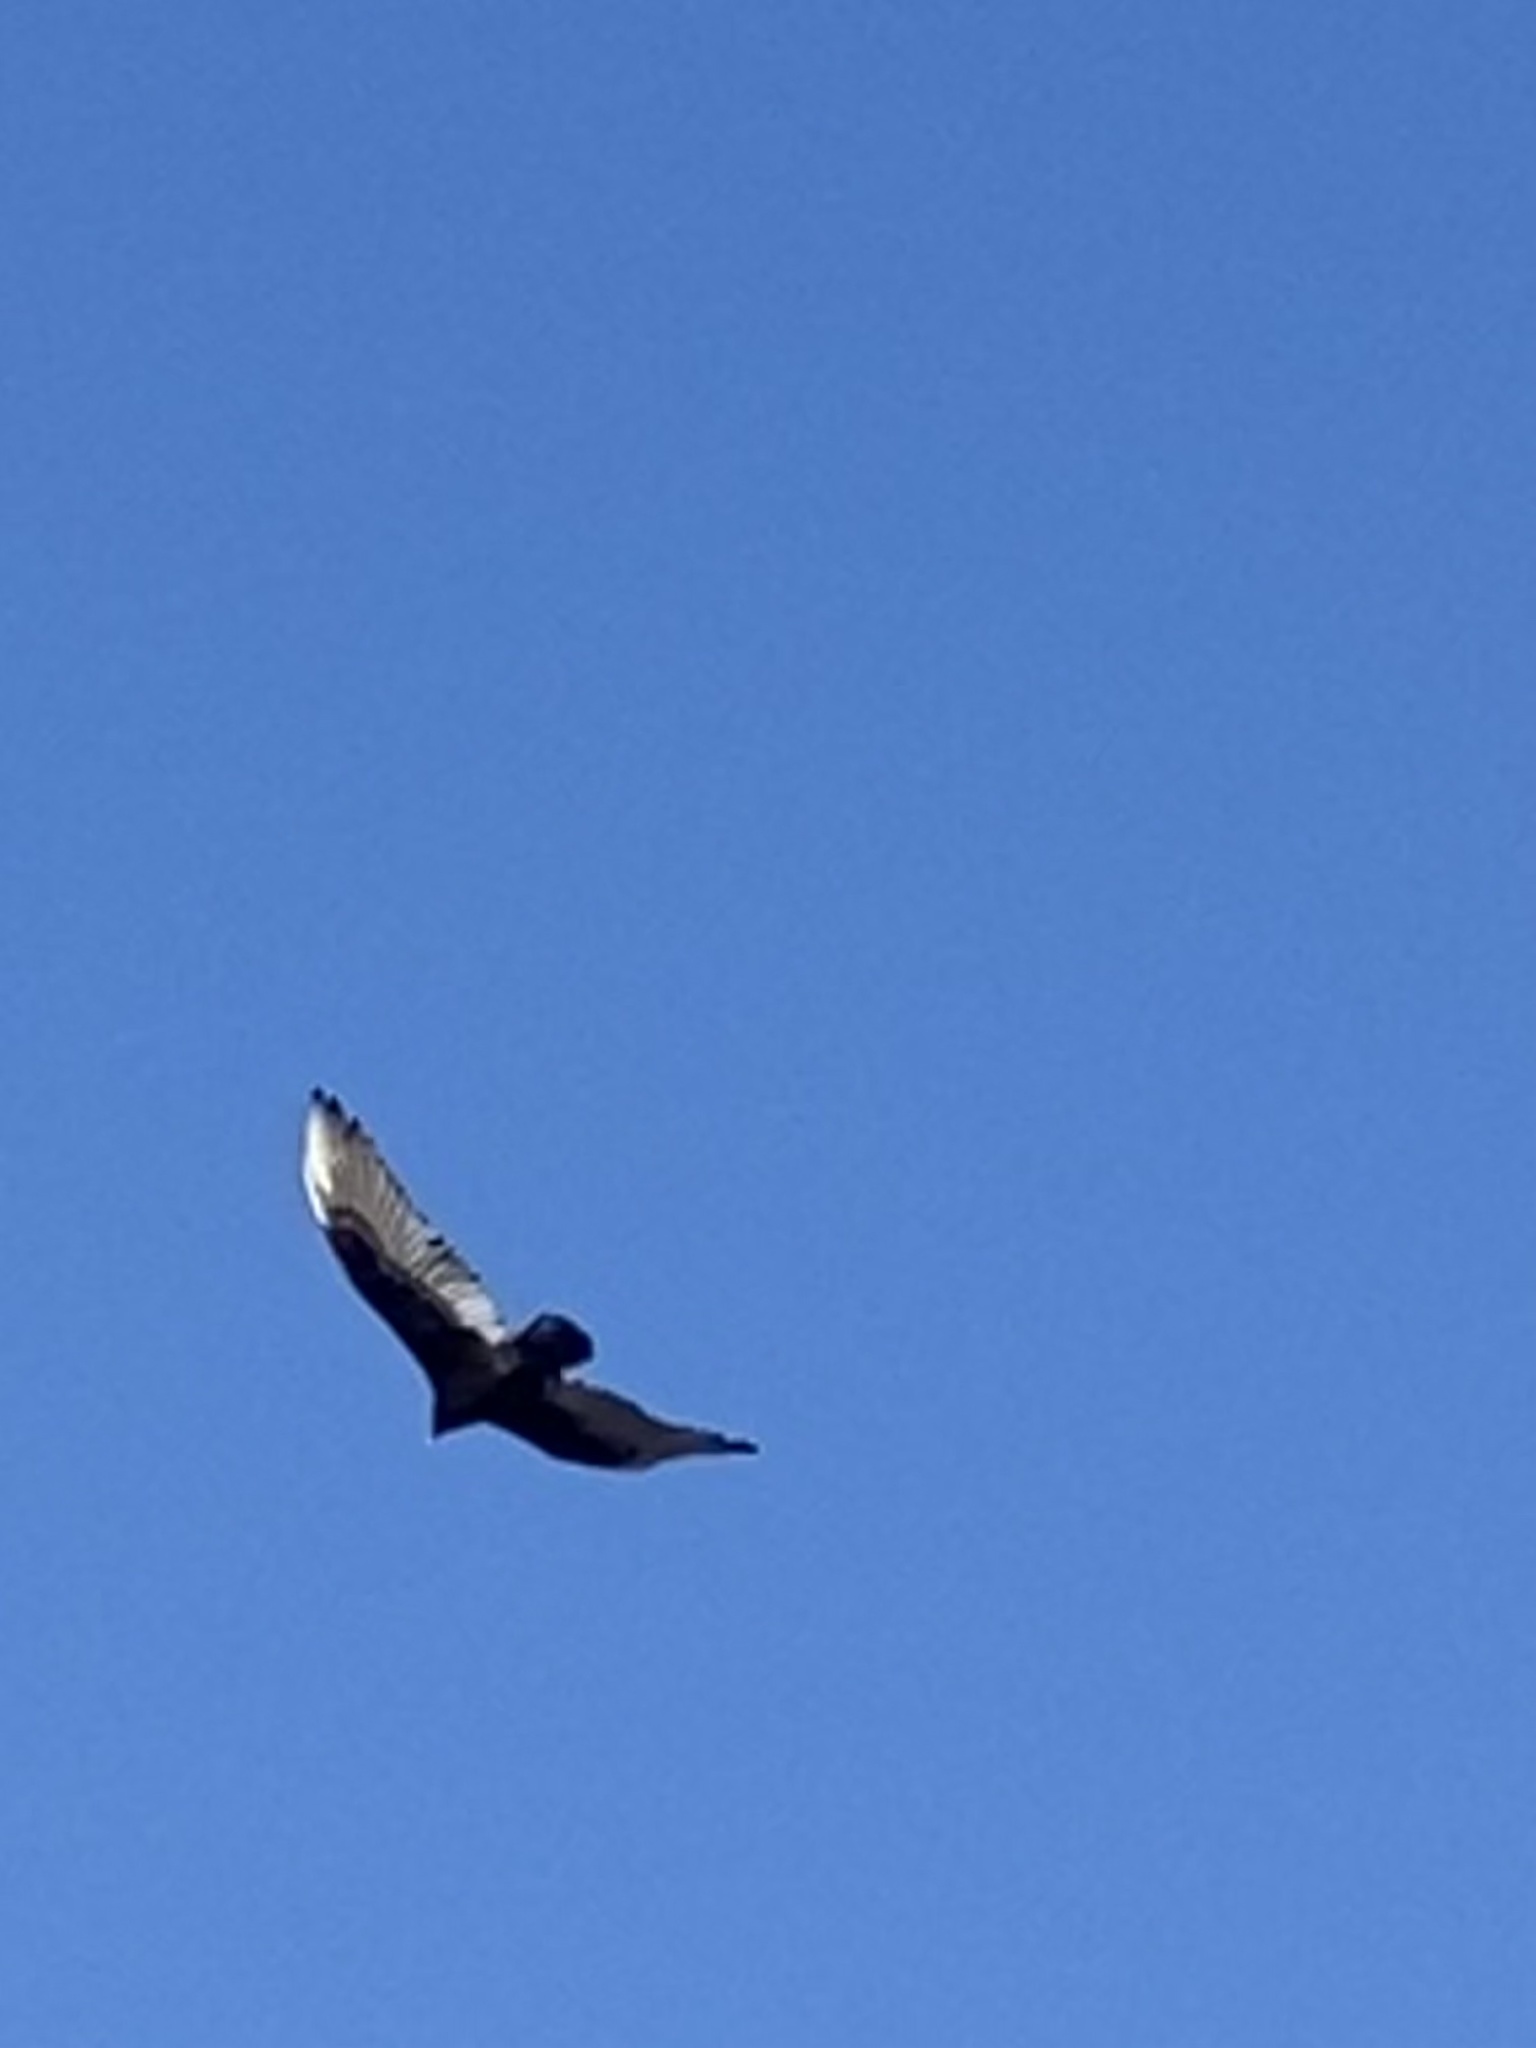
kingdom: Animalia
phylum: Chordata
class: Aves
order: Accipitriformes
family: Cathartidae
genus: Cathartes
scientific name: Cathartes aura
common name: Turkey vulture
